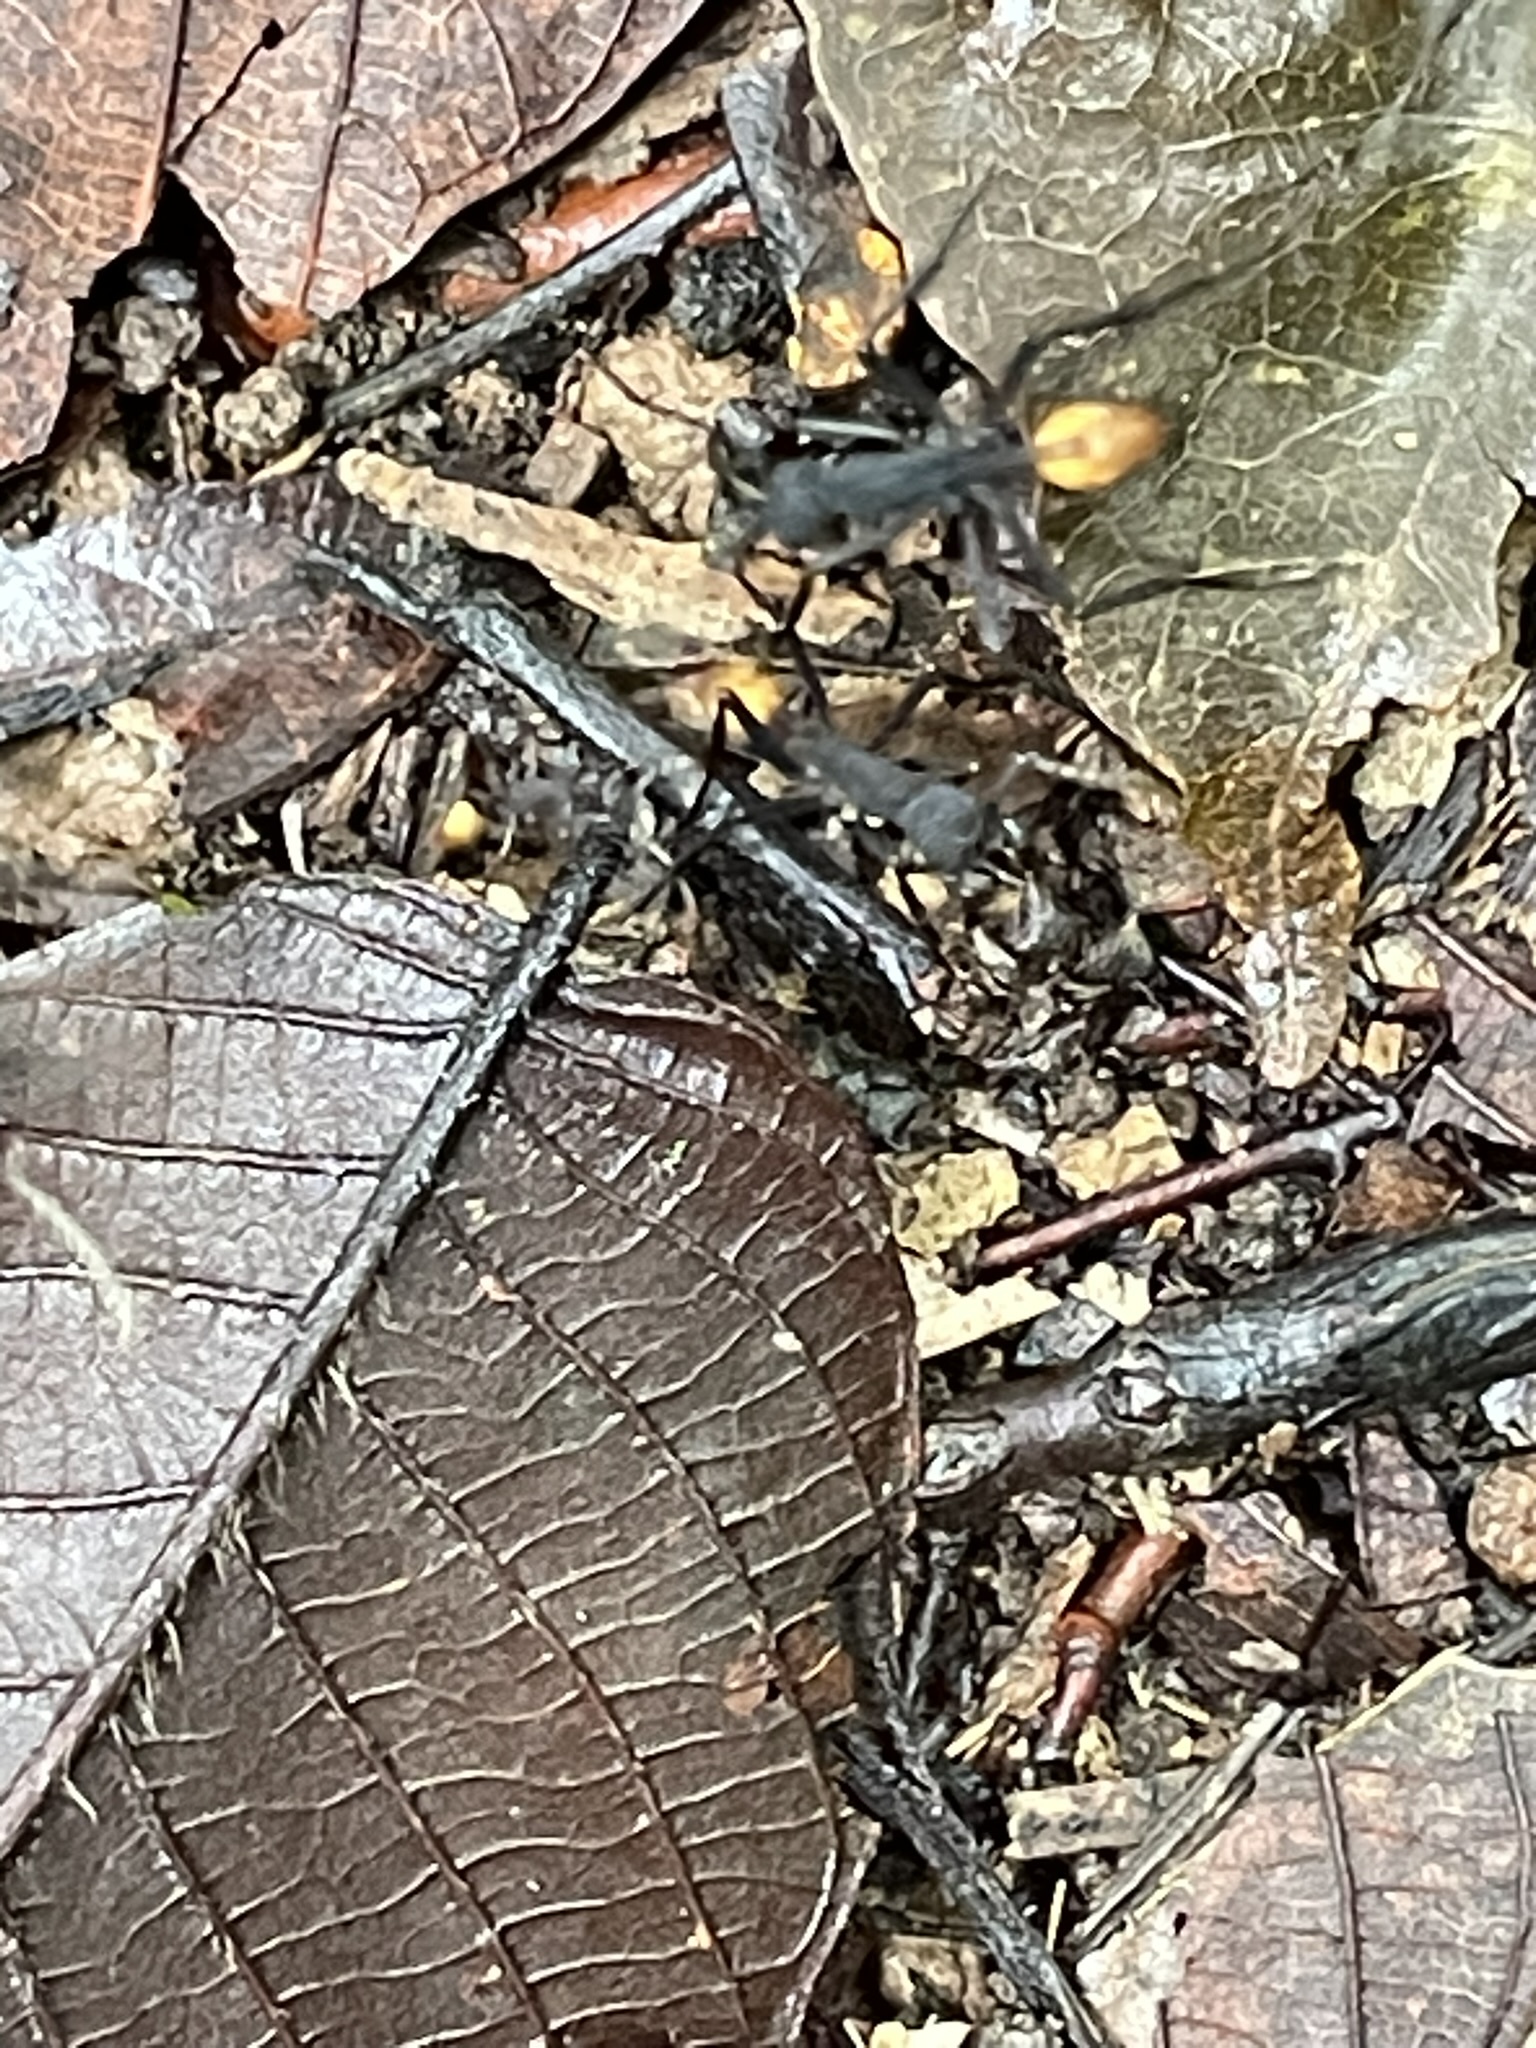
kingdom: Animalia
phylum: Arthropoda
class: Insecta
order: Hymenoptera
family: Formicidae
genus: Eciton
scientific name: Eciton rapax
